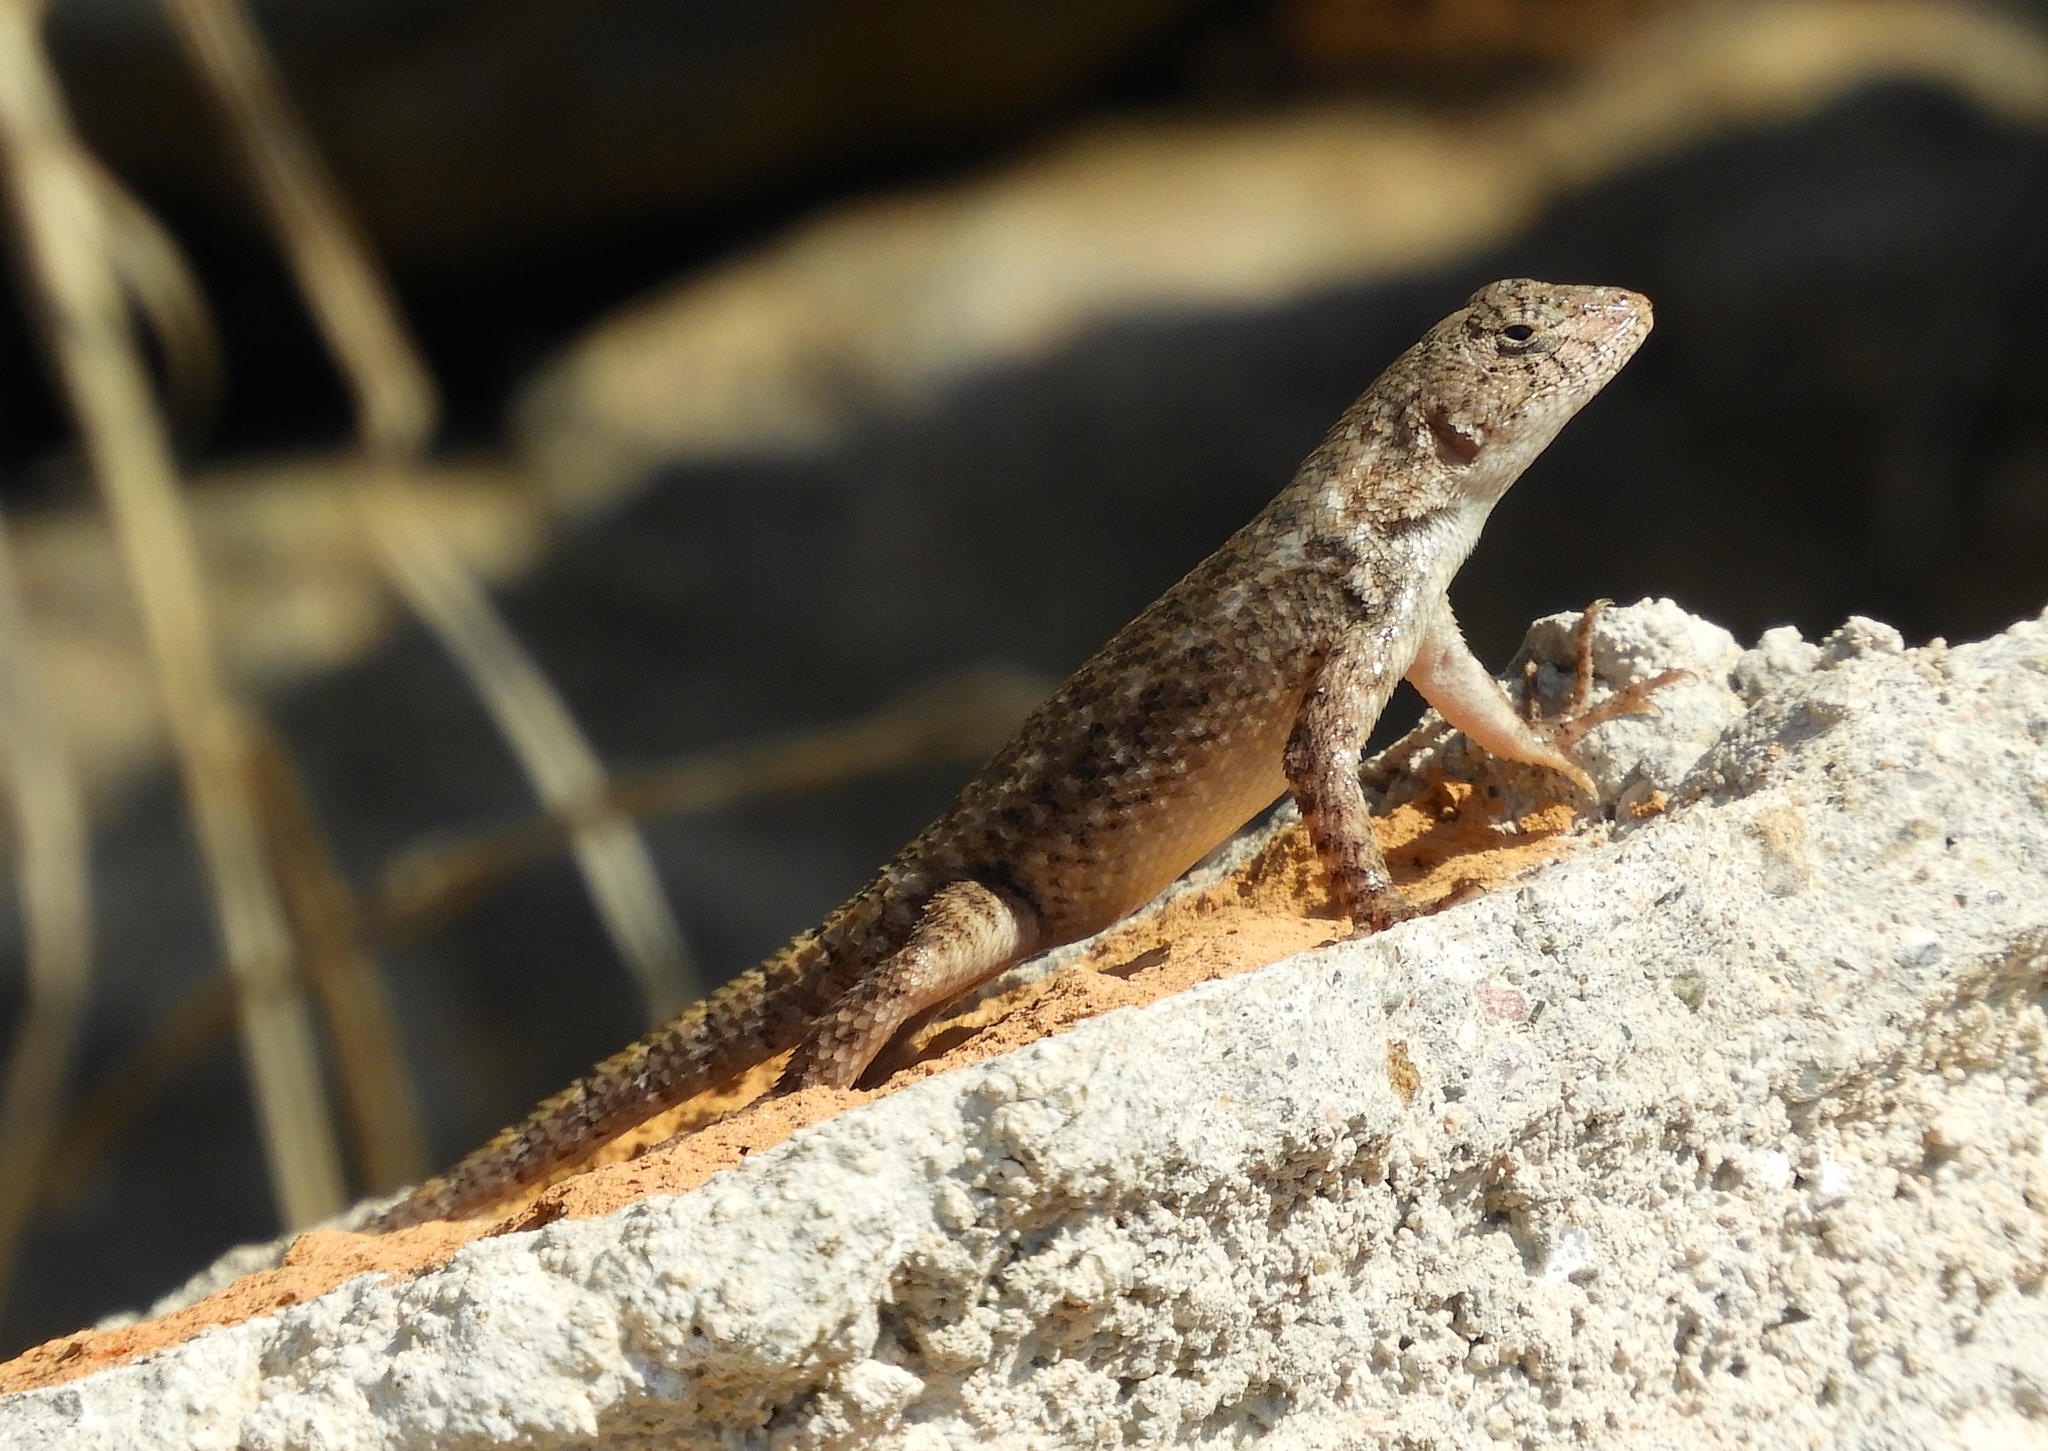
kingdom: Animalia
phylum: Chordata
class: Squamata
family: Phrynosomatidae
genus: Sceloporus
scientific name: Sceloporus nelsoni
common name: Nelson's spiny lizard
